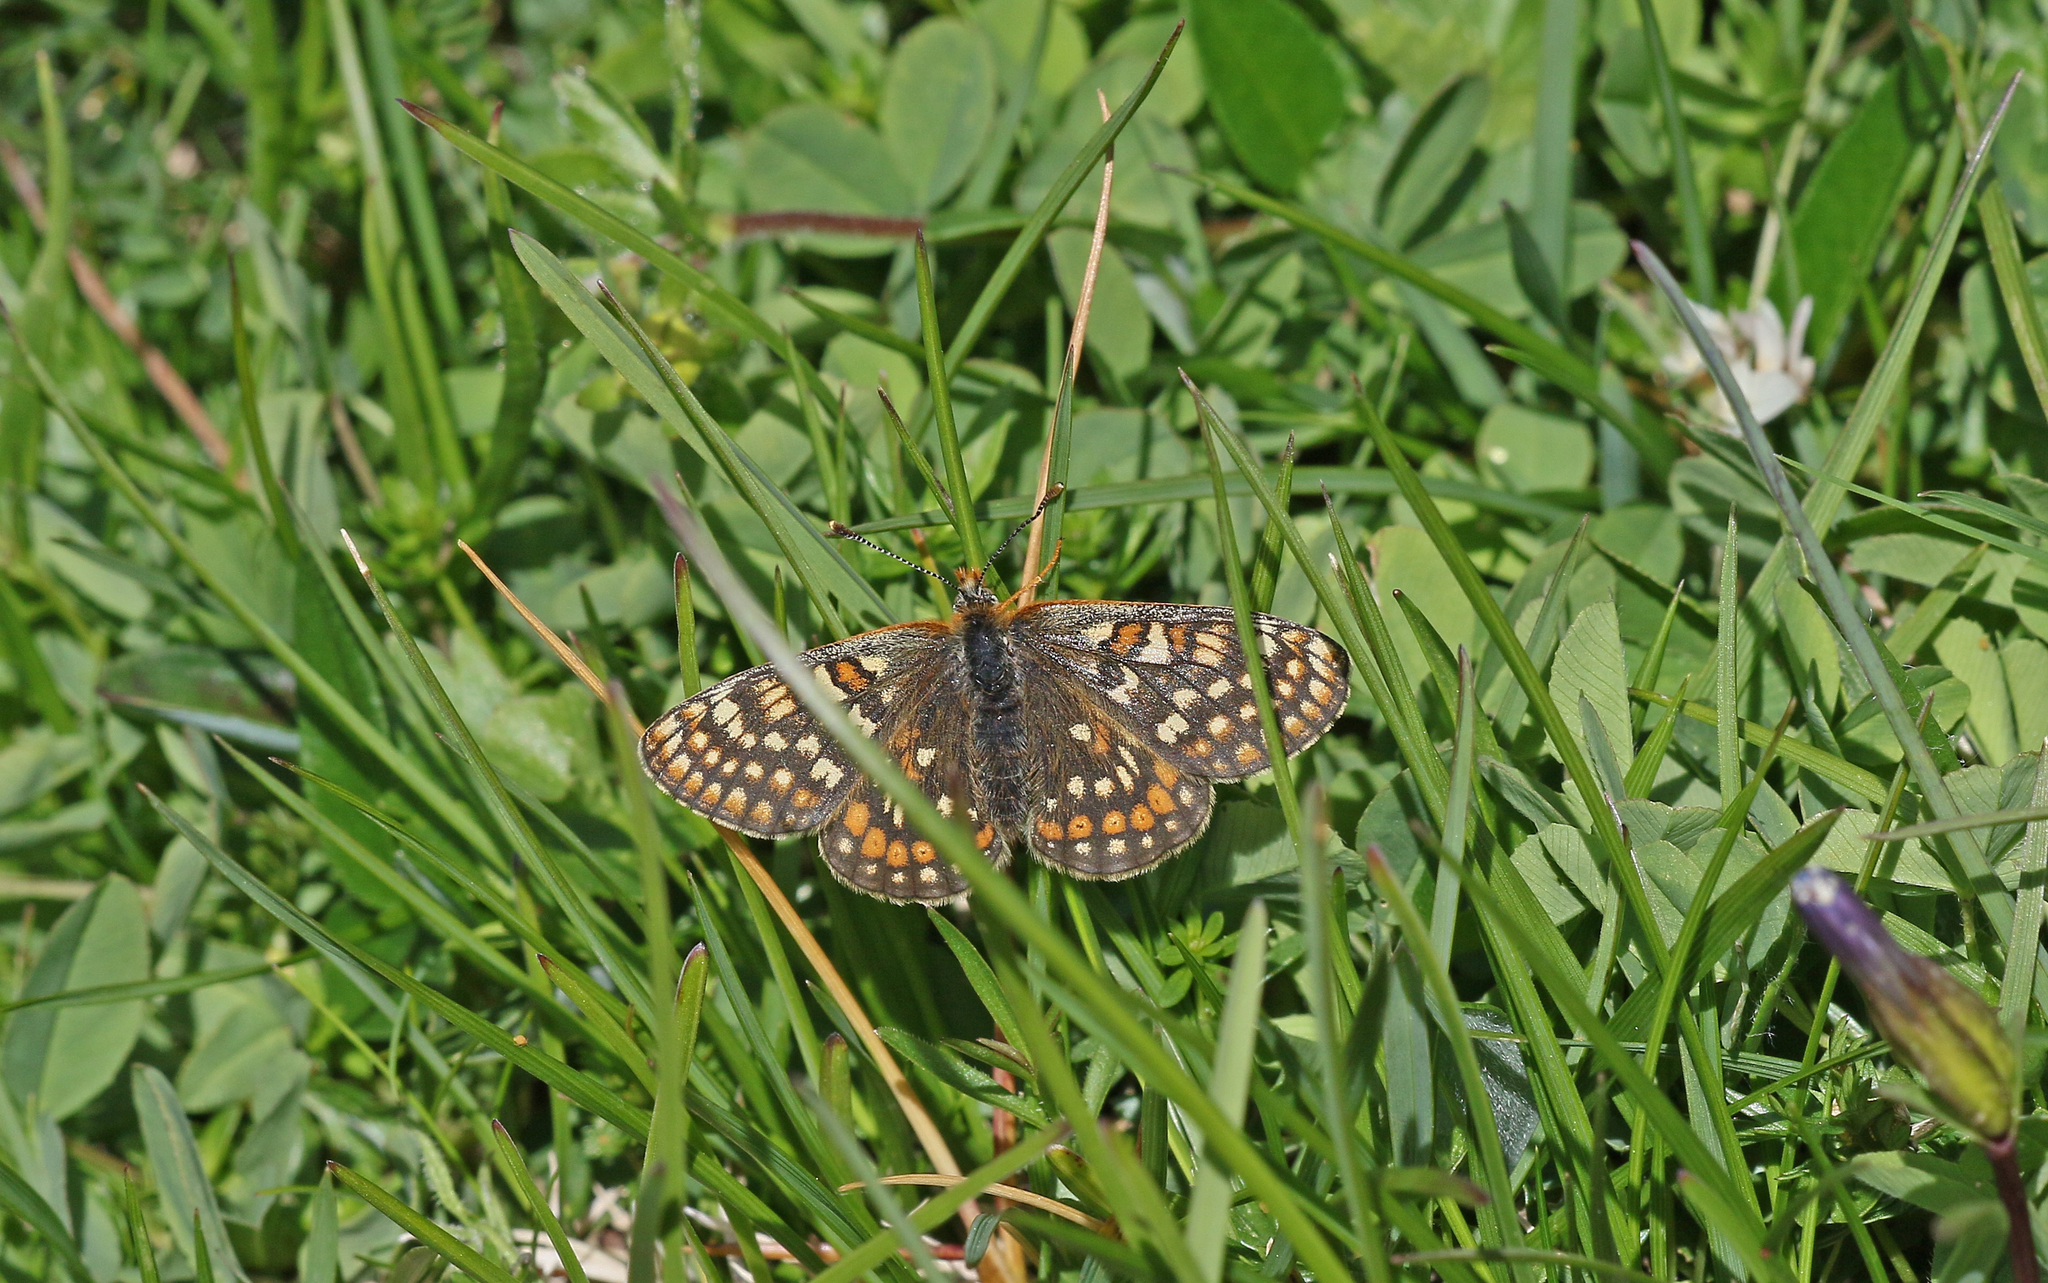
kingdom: Animalia
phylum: Arthropoda
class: Insecta
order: Lepidoptera
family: Nymphalidae
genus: Euphydryas
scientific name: Euphydryas aurinia
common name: Marsh fritillary
